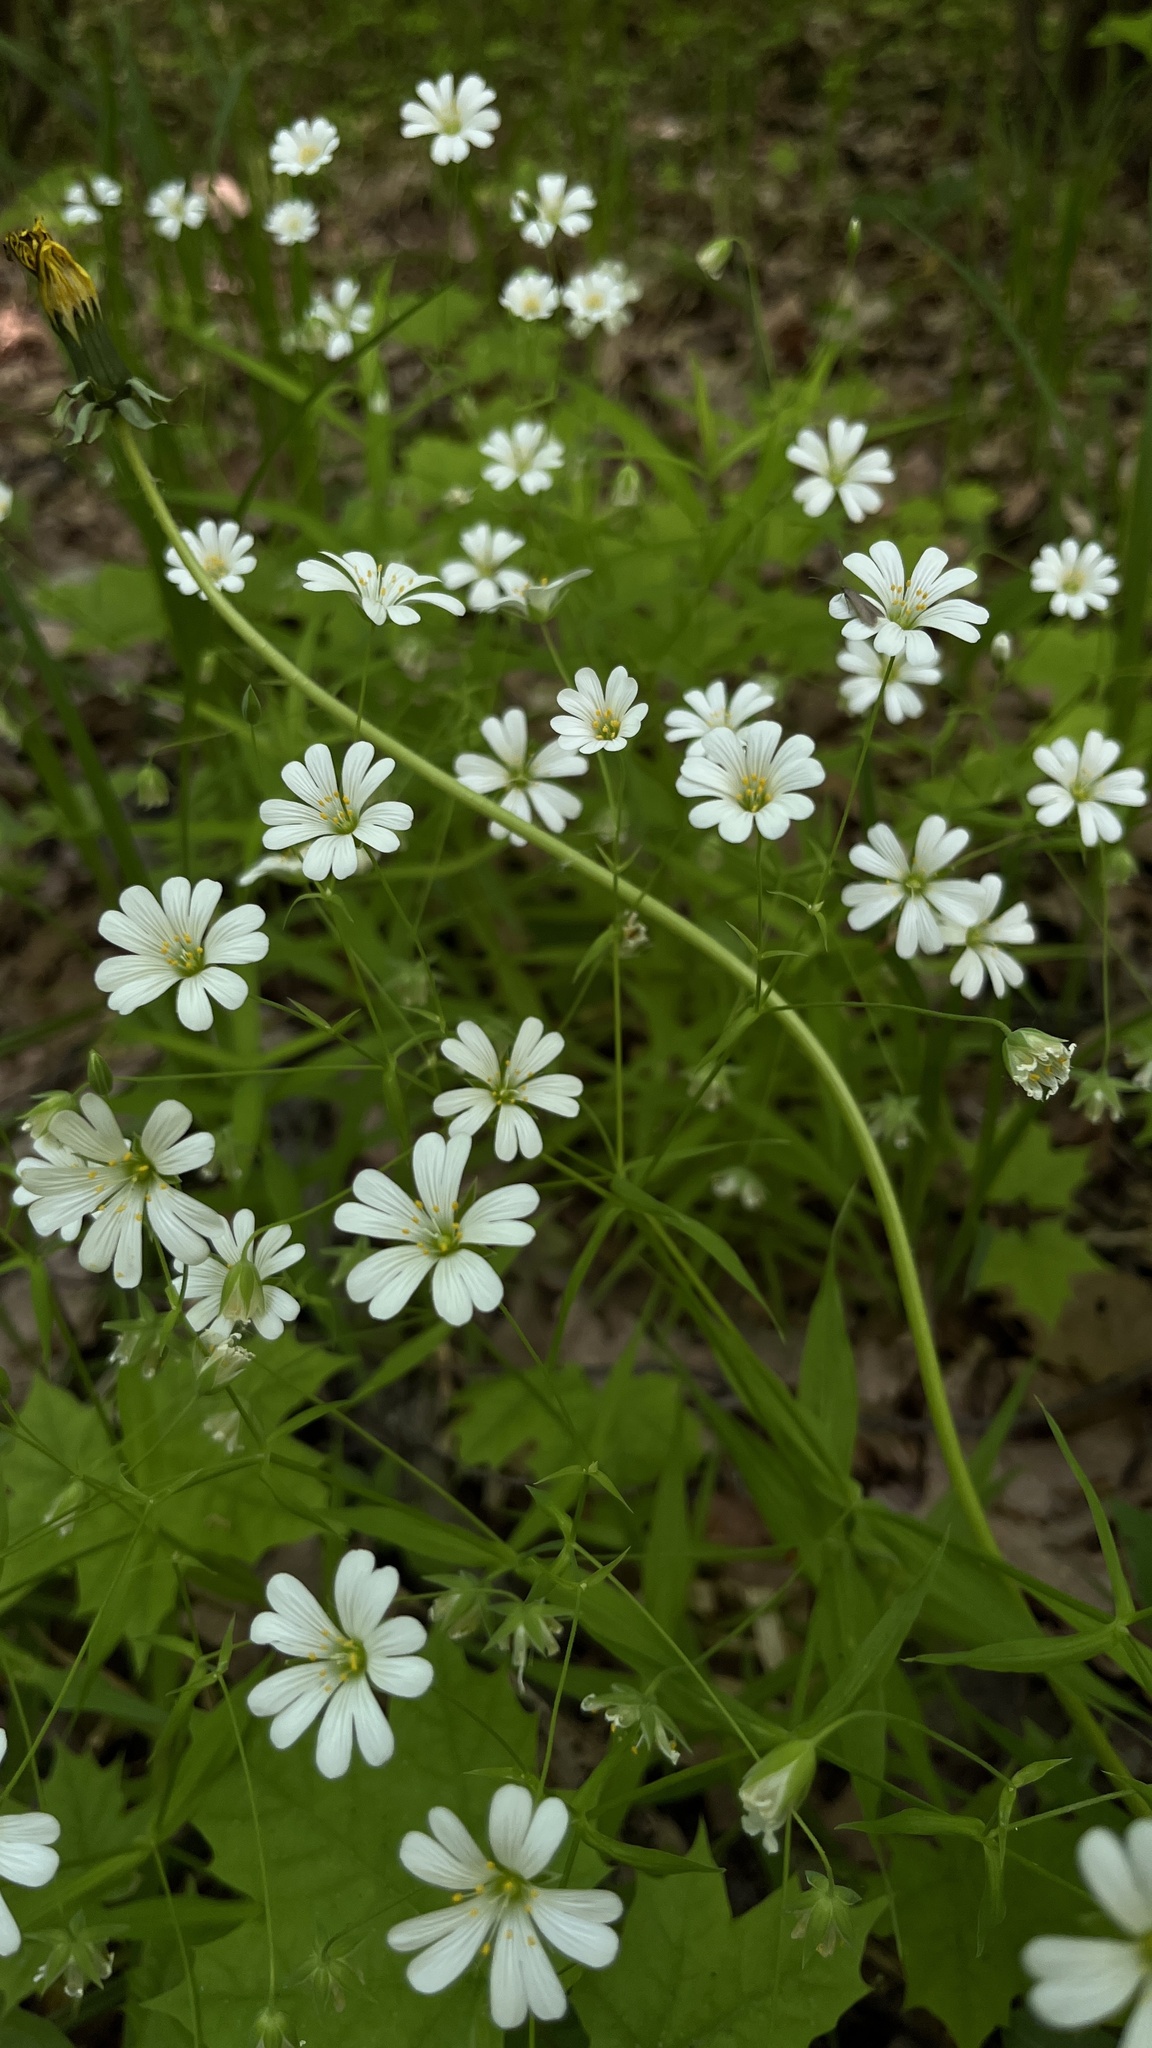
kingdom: Plantae
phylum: Tracheophyta
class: Magnoliopsida
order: Caryophyllales
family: Caryophyllaceae
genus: Rabelera
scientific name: Rabelera holostea
